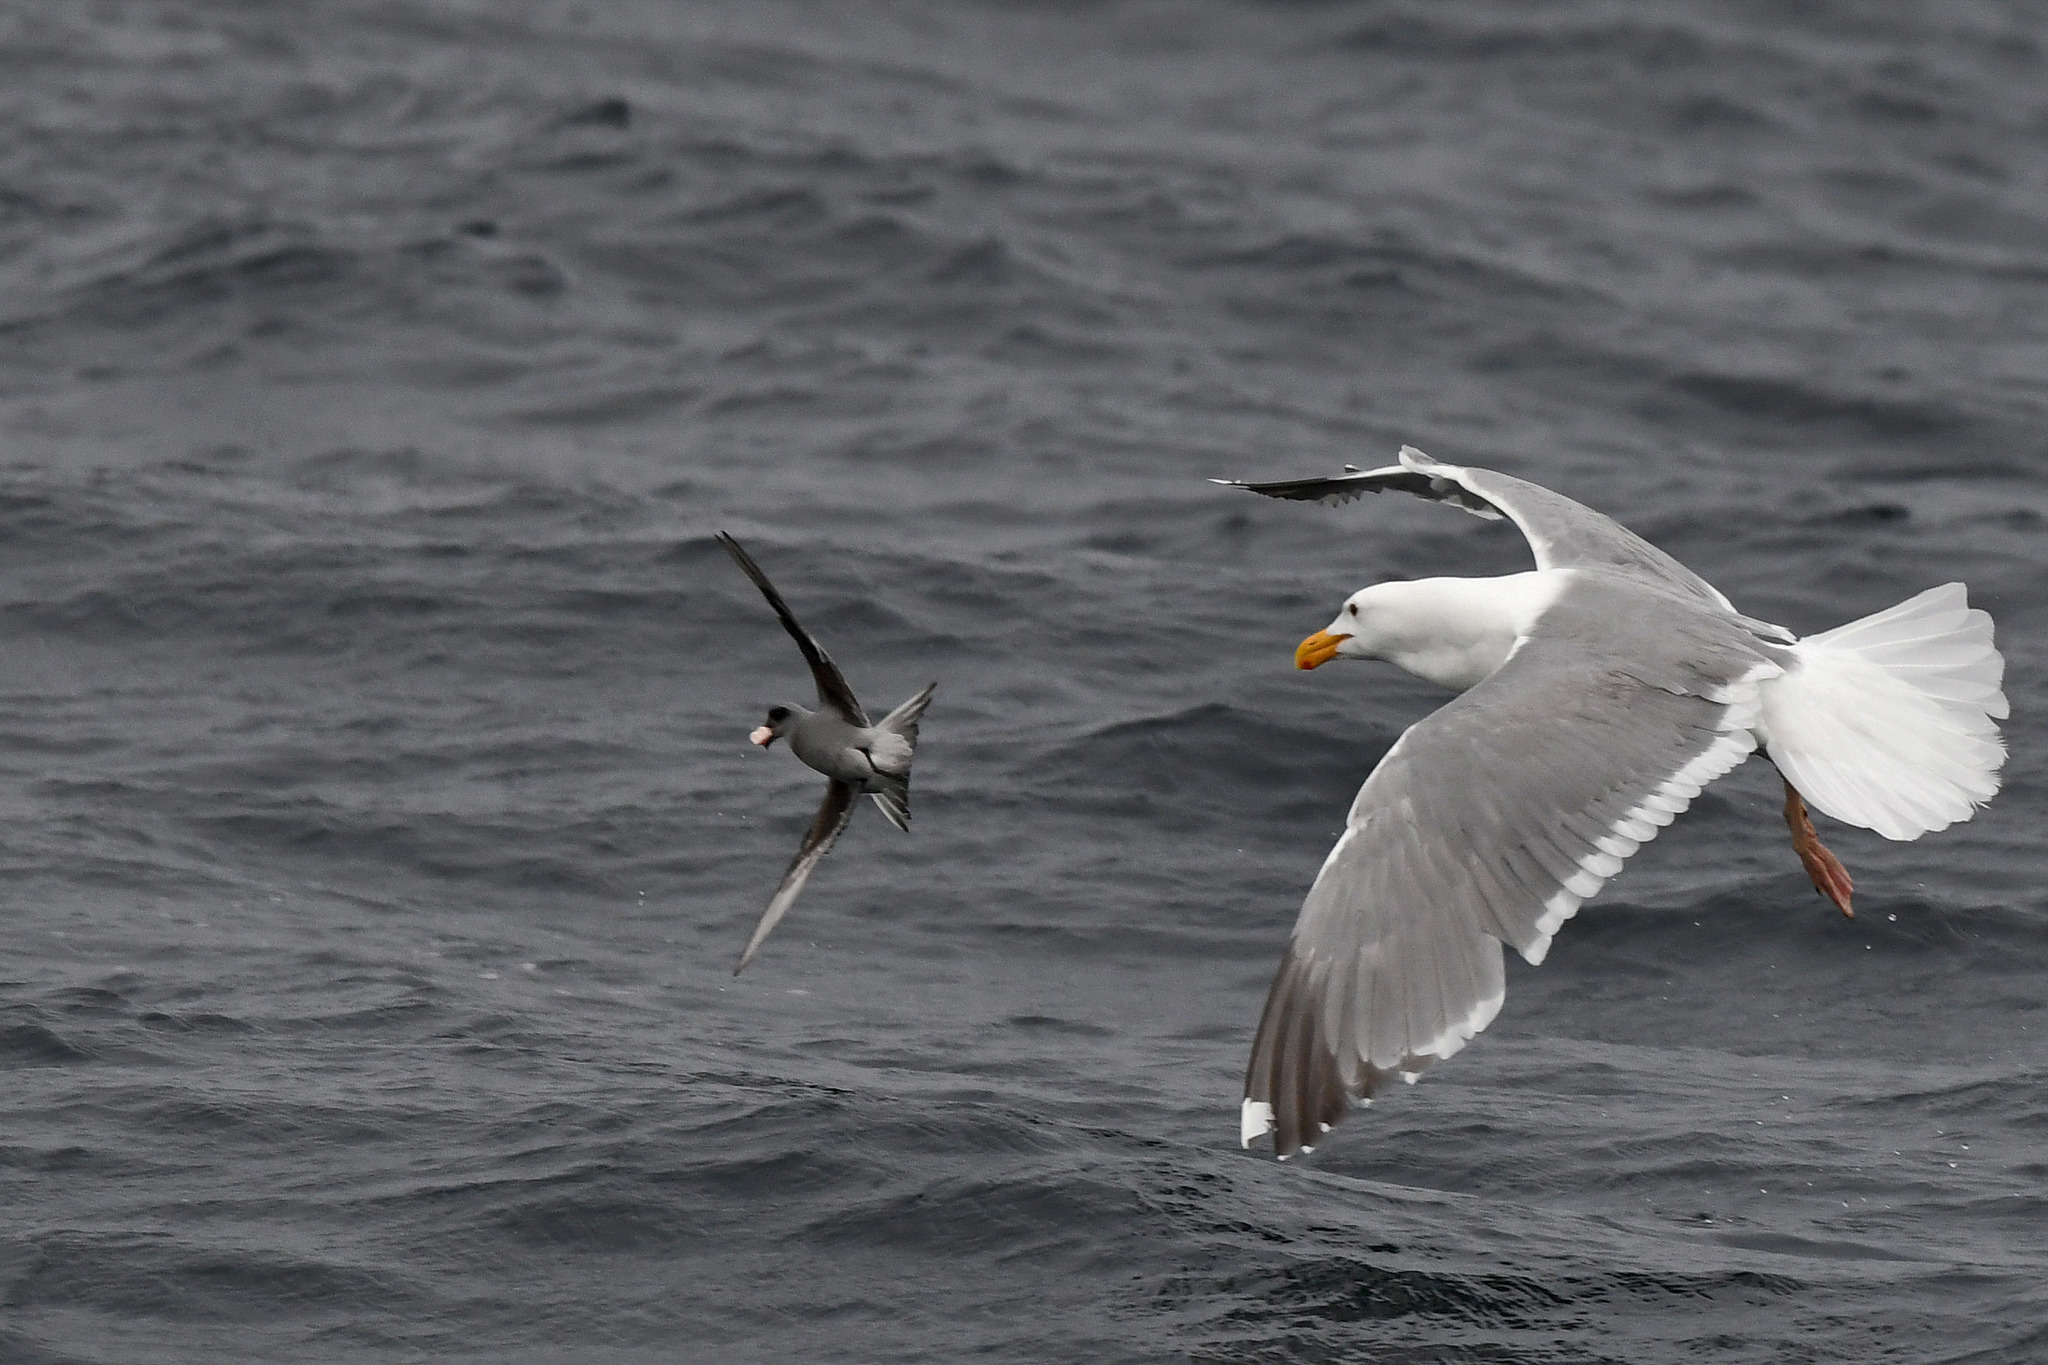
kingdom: Animalia
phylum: Chordata
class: Aves
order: Procellariiformes
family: Hydrobatidae
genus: Oceanodroma
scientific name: Oceanodroma furcata
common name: Fork-tailed storm-petrel
